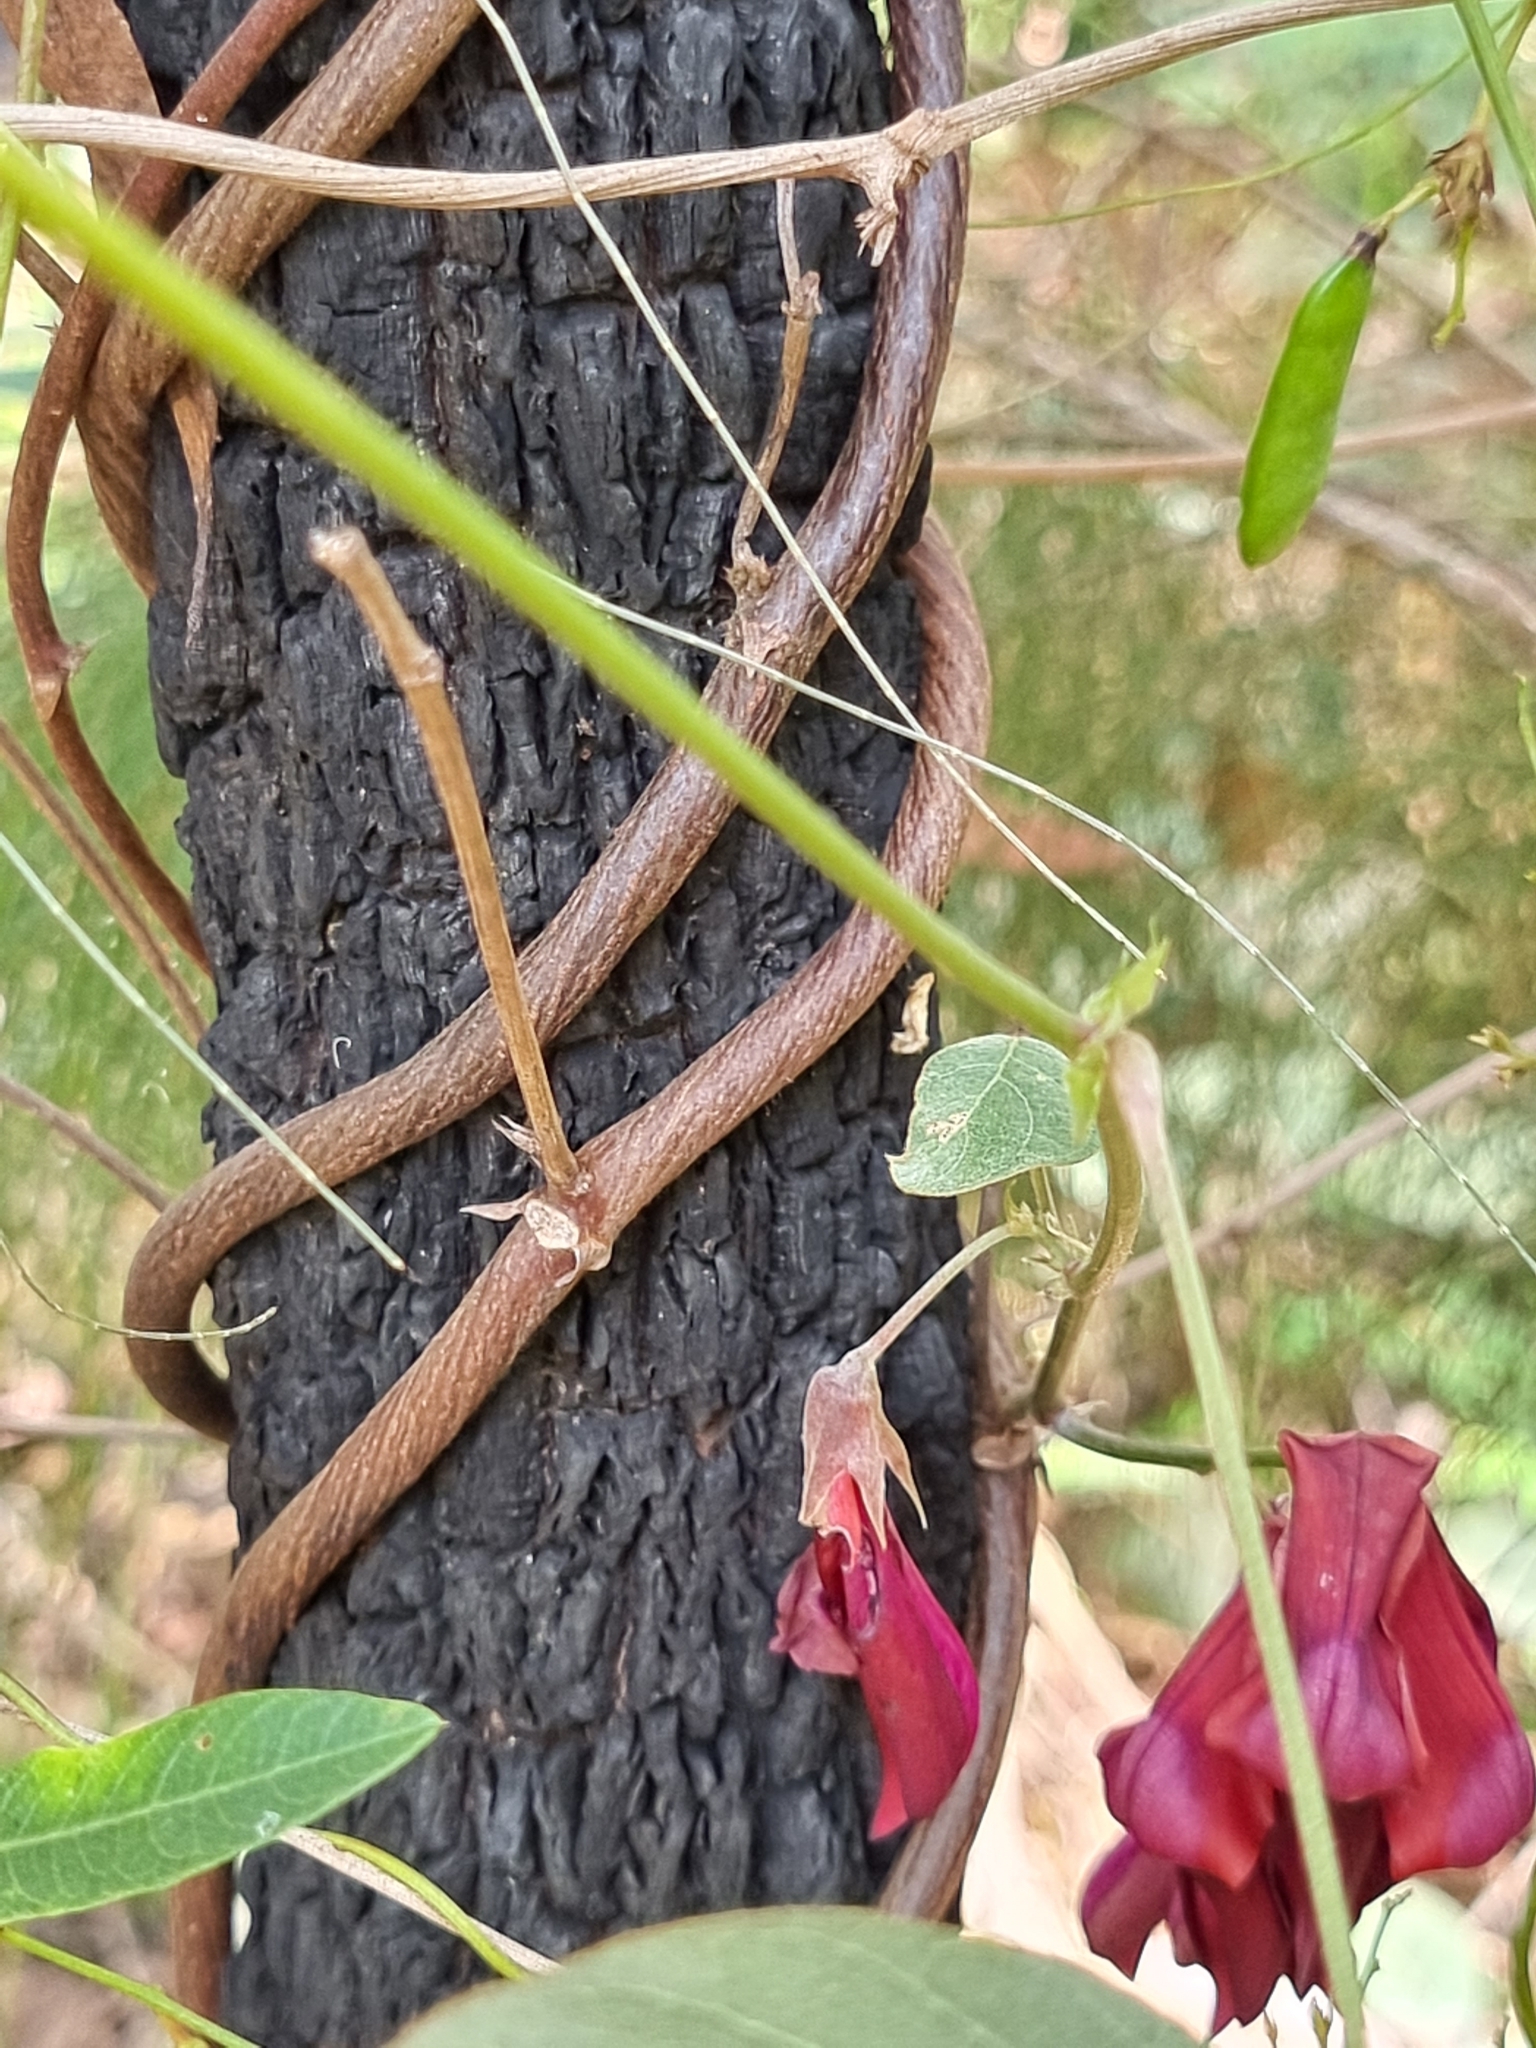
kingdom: Plantae
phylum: Tracheophyta
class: Magnoliopsida
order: Fabales
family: Fabaceae
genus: Kennedia
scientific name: Kennedia rubicunda
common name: Red kennedy-pea
